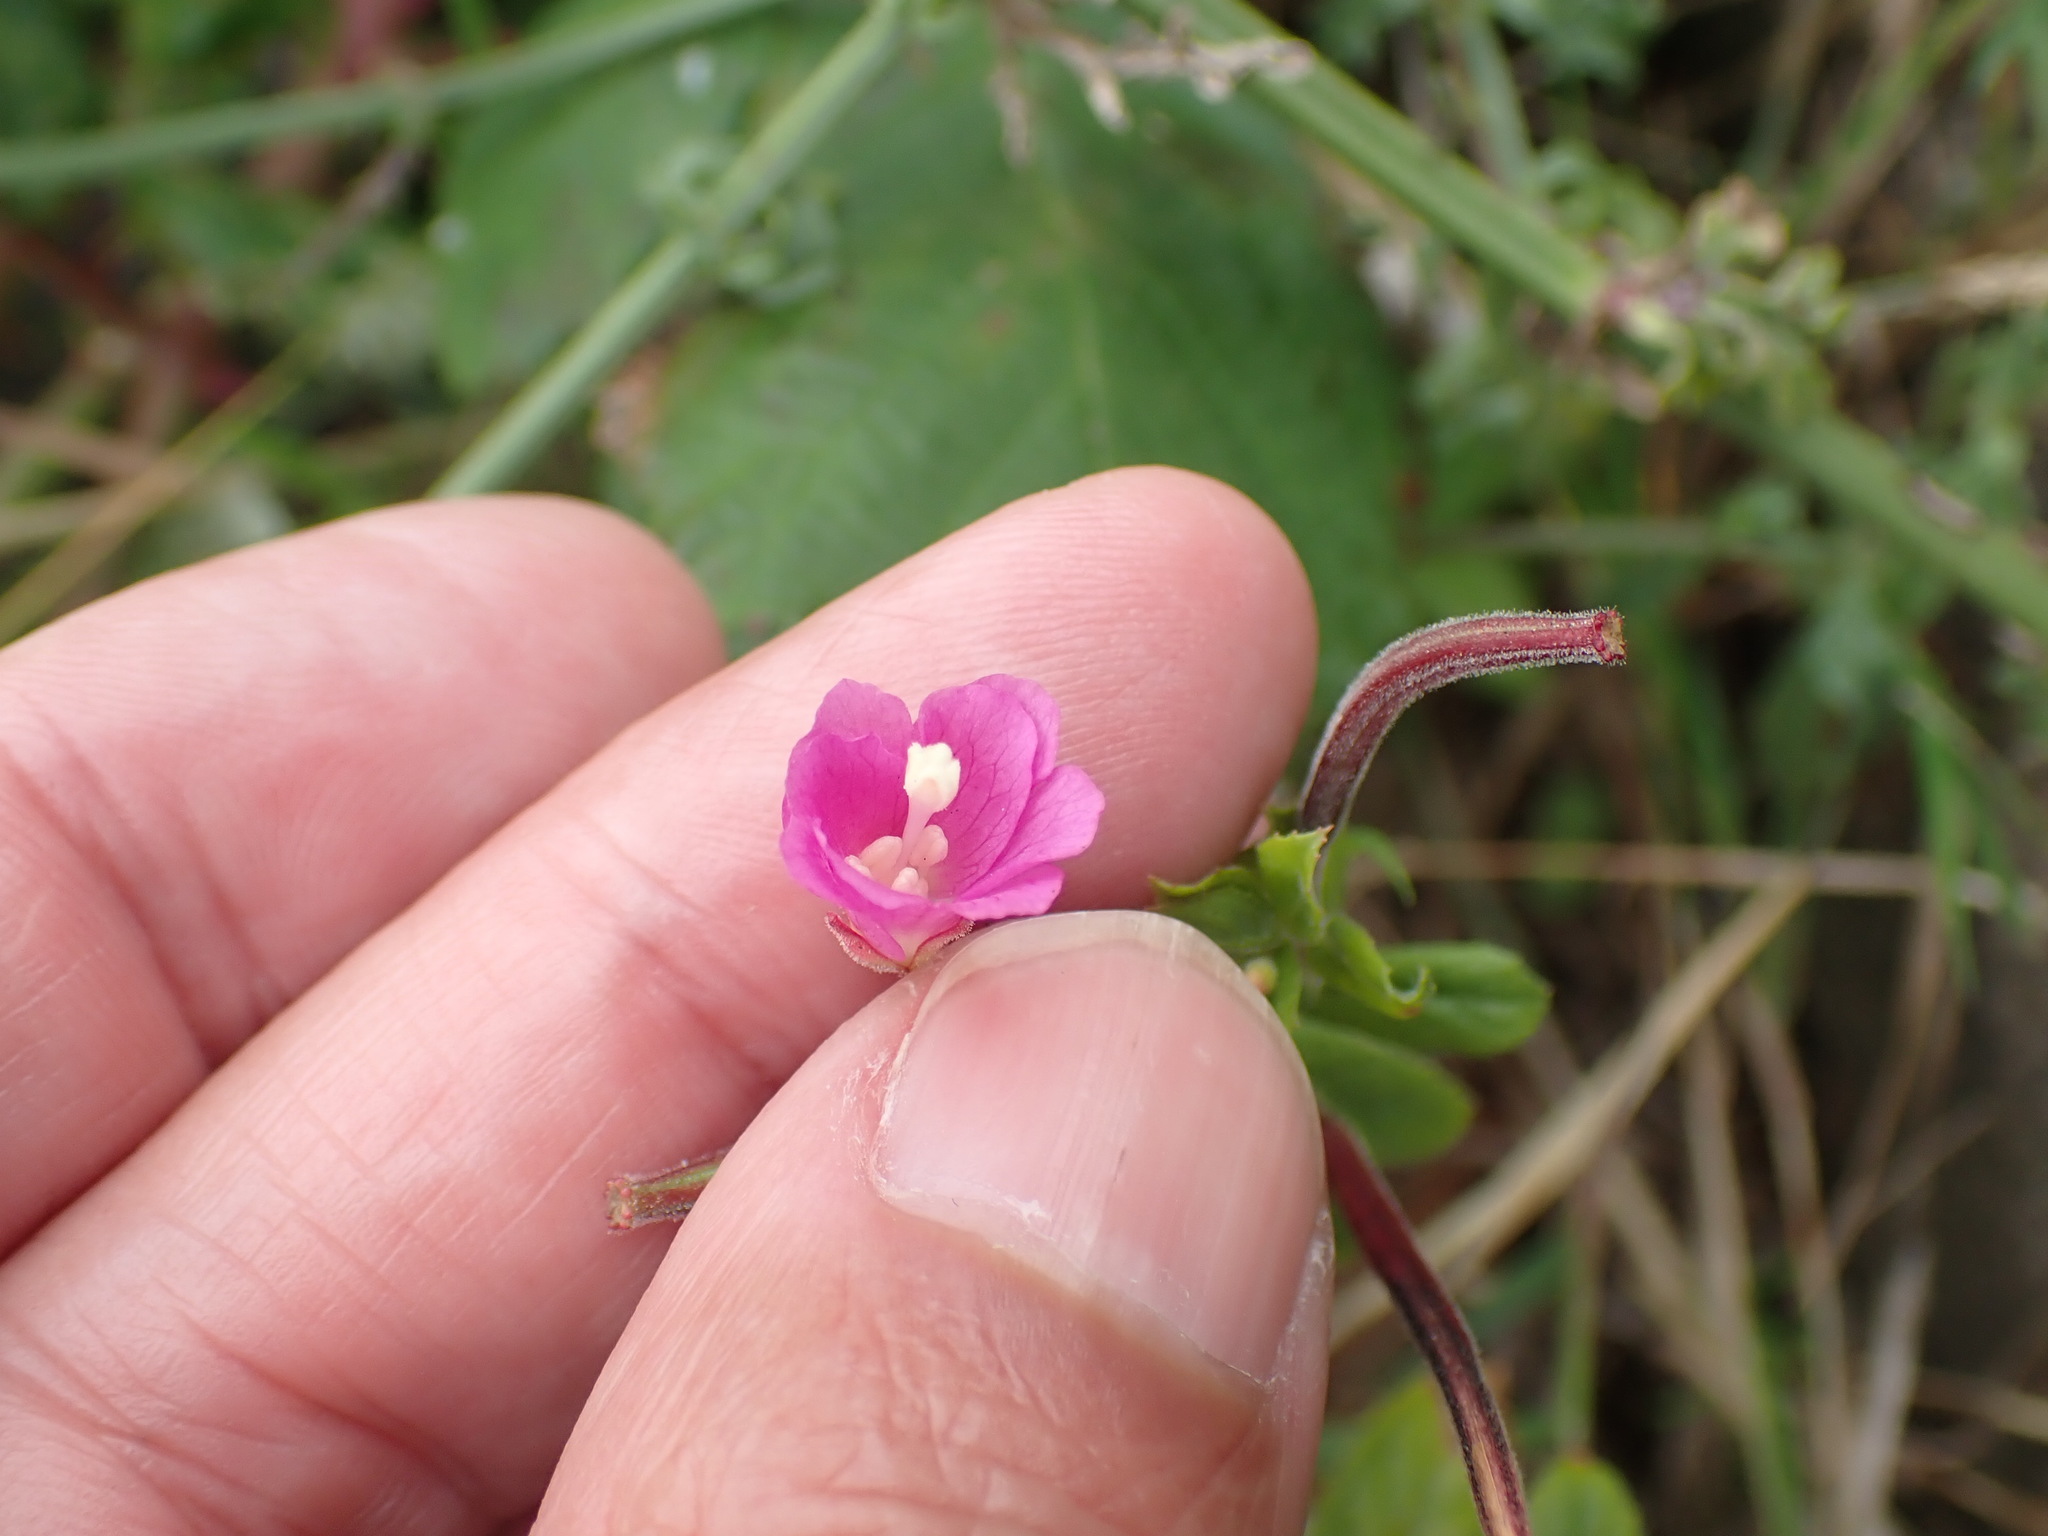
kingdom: Plantae
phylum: Tracheophyta
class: Magnoliopsida
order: Myrtales
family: Onagraceae
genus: Epilobium
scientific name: Epilobium hirsutum
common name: Great willowherb
